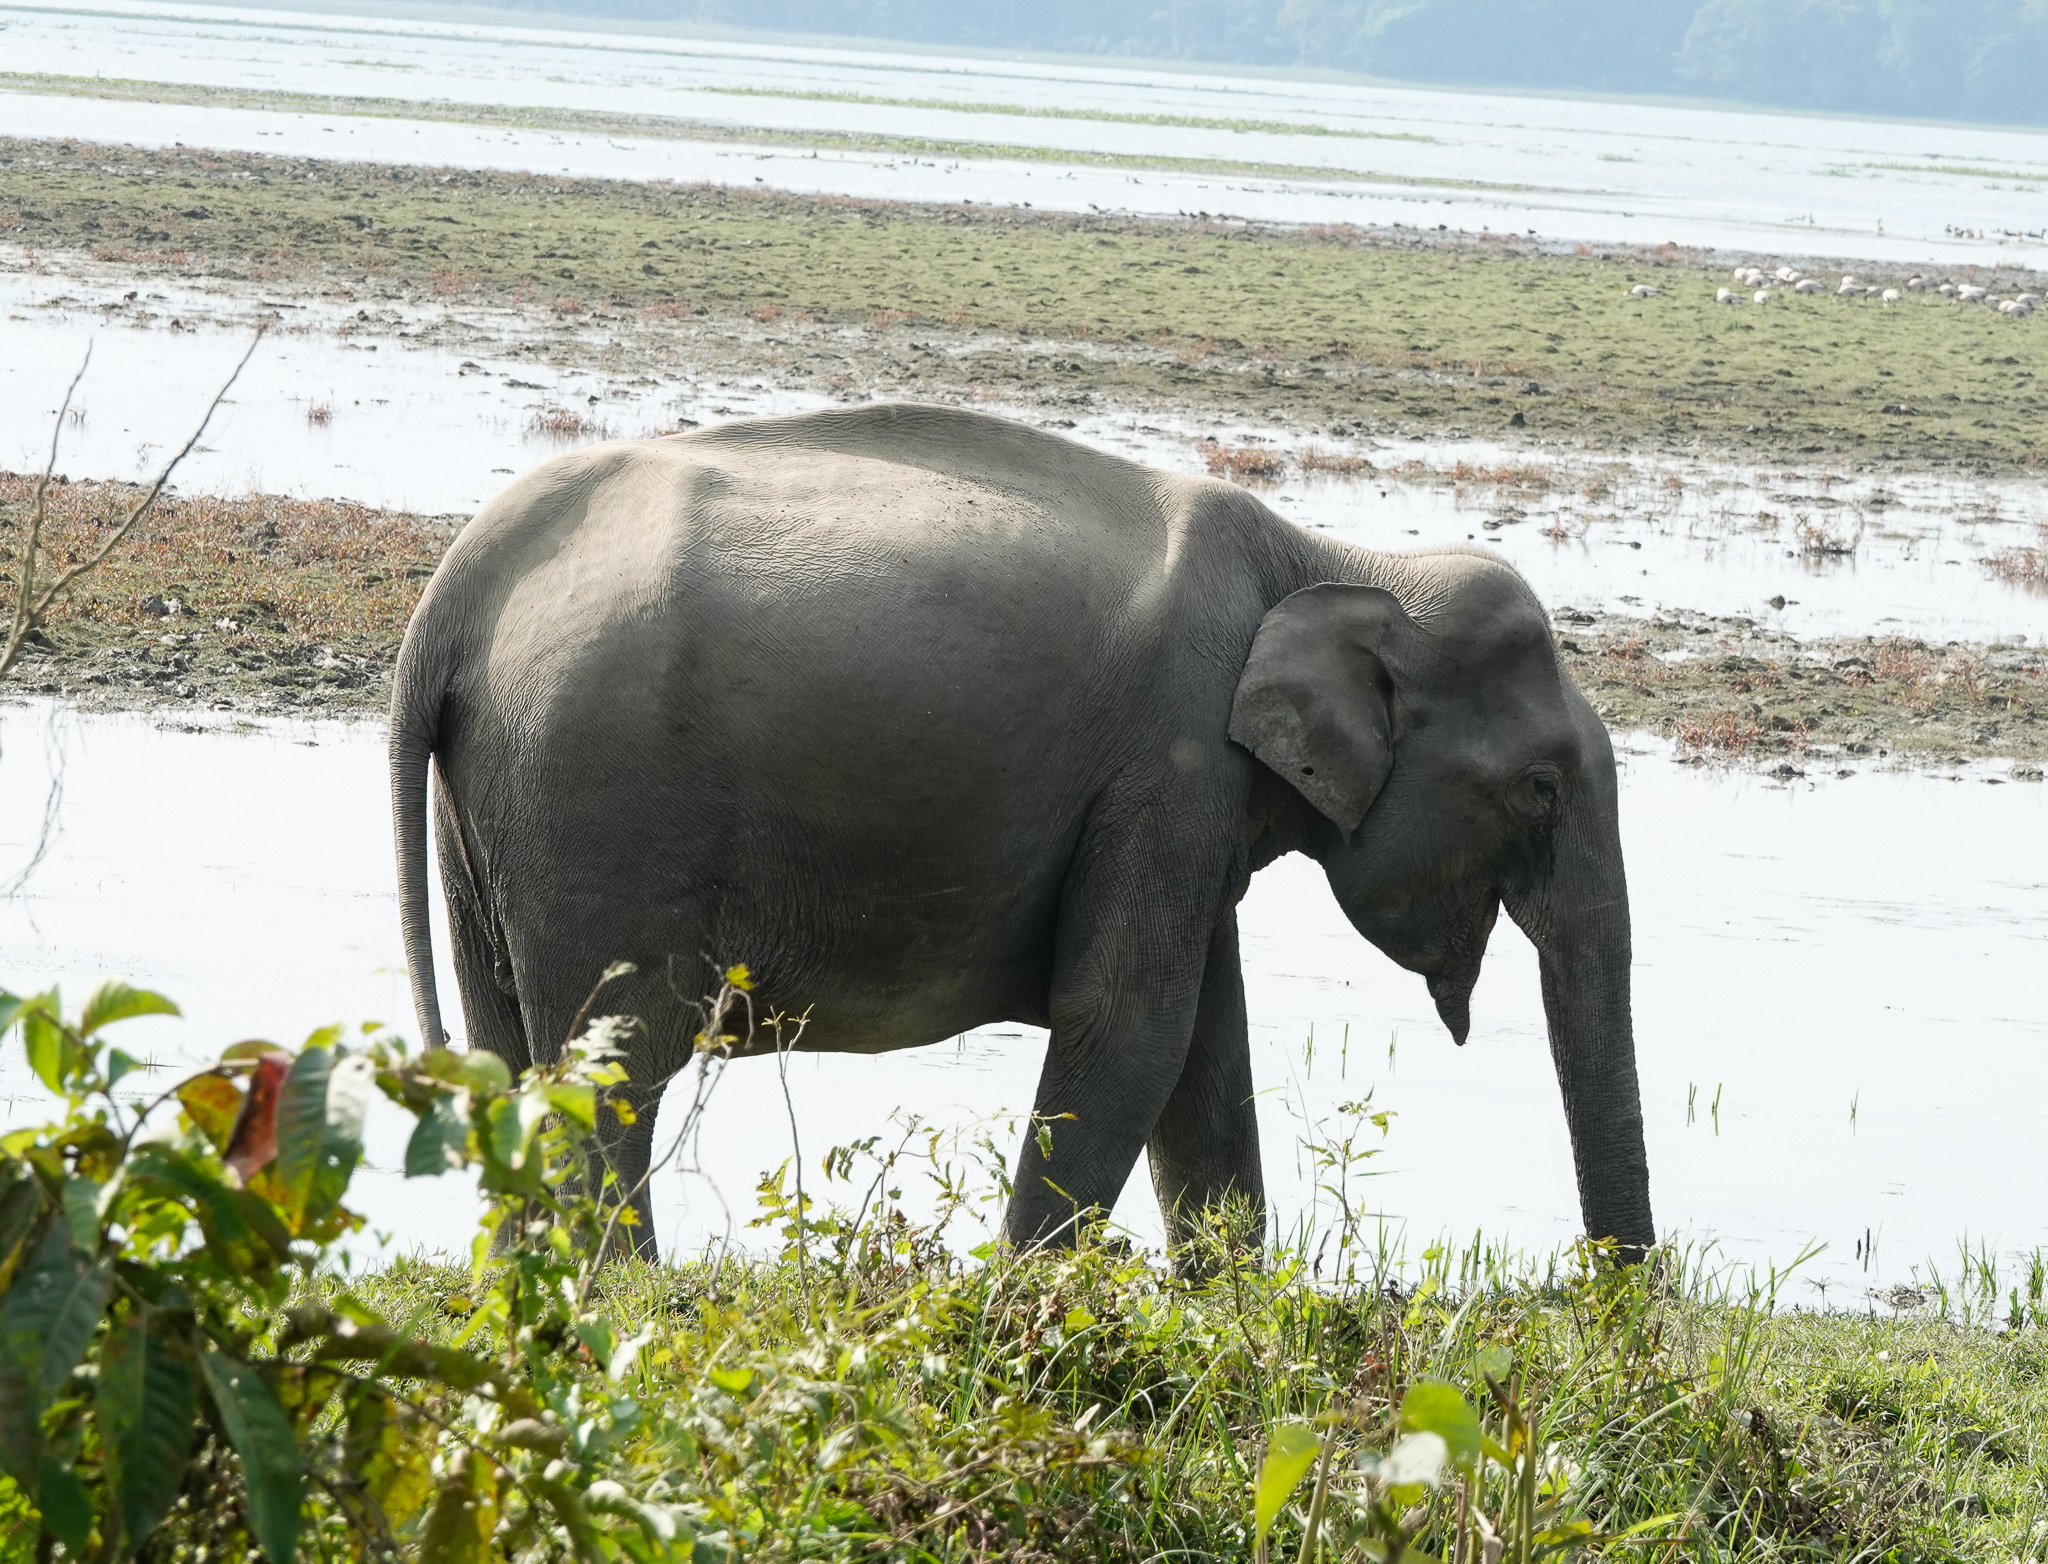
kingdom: Animalia
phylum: Chordata
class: Mammalia
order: Proboscidea
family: Elephantidae
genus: Elephas
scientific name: Elephas maximus
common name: Asian elephant
